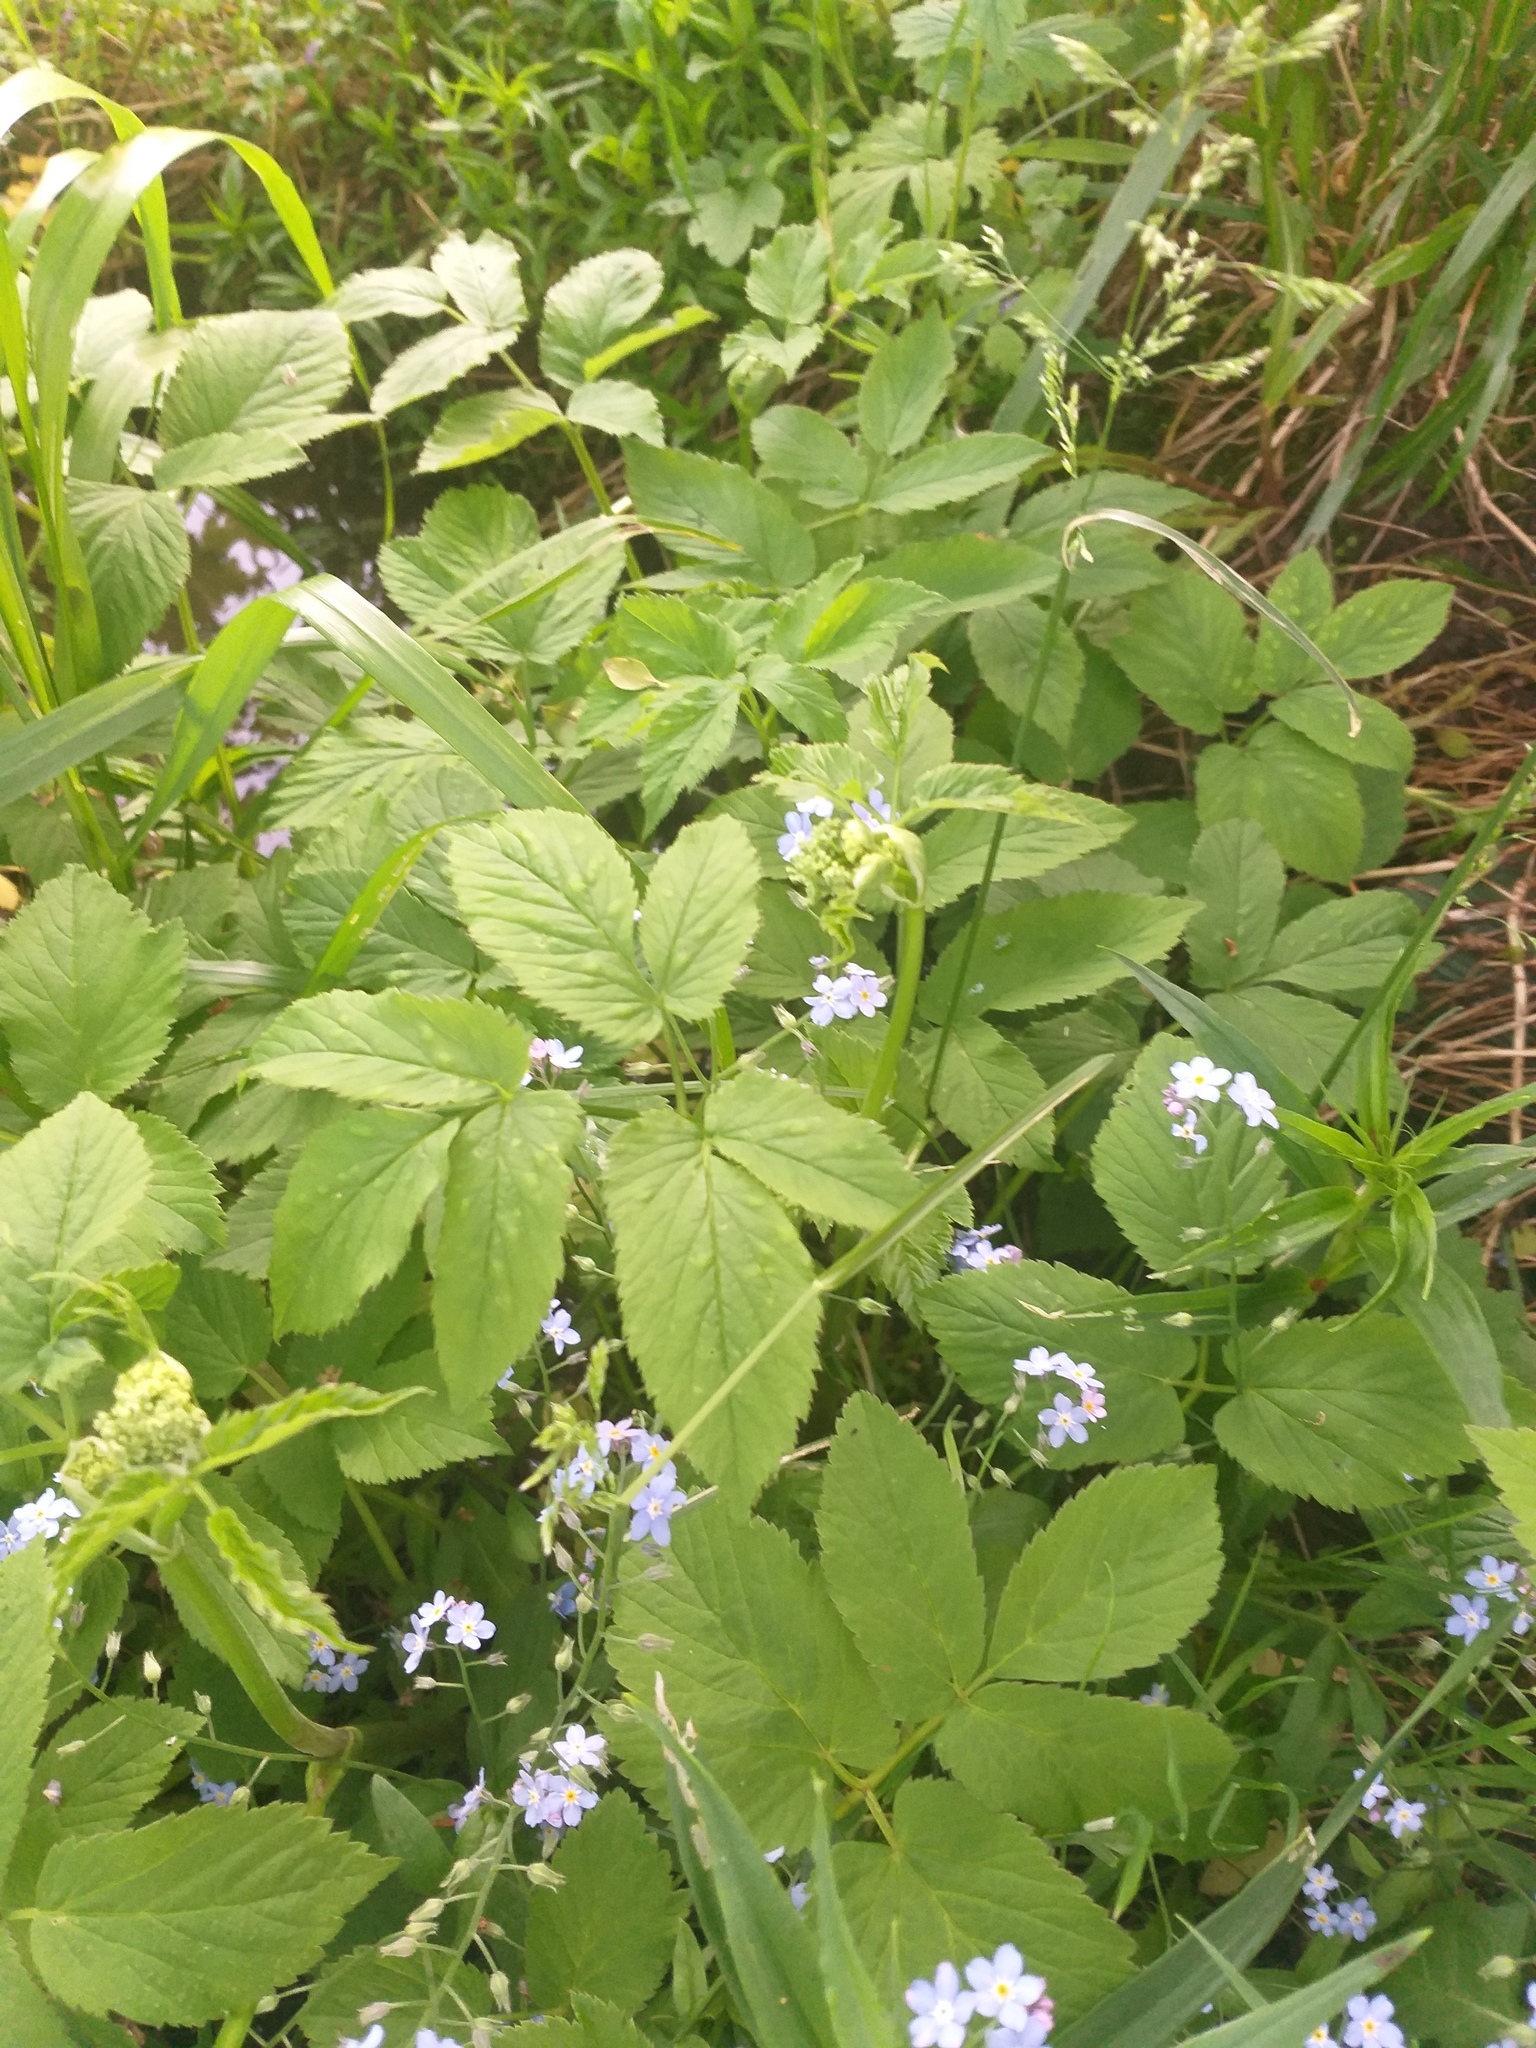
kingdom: Plantae
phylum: Tracheophyta
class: Magnoliopsida
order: Apiales
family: Apiaceae
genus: Aegopodium
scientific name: Aegopodium podagraria
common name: Ground-elder
